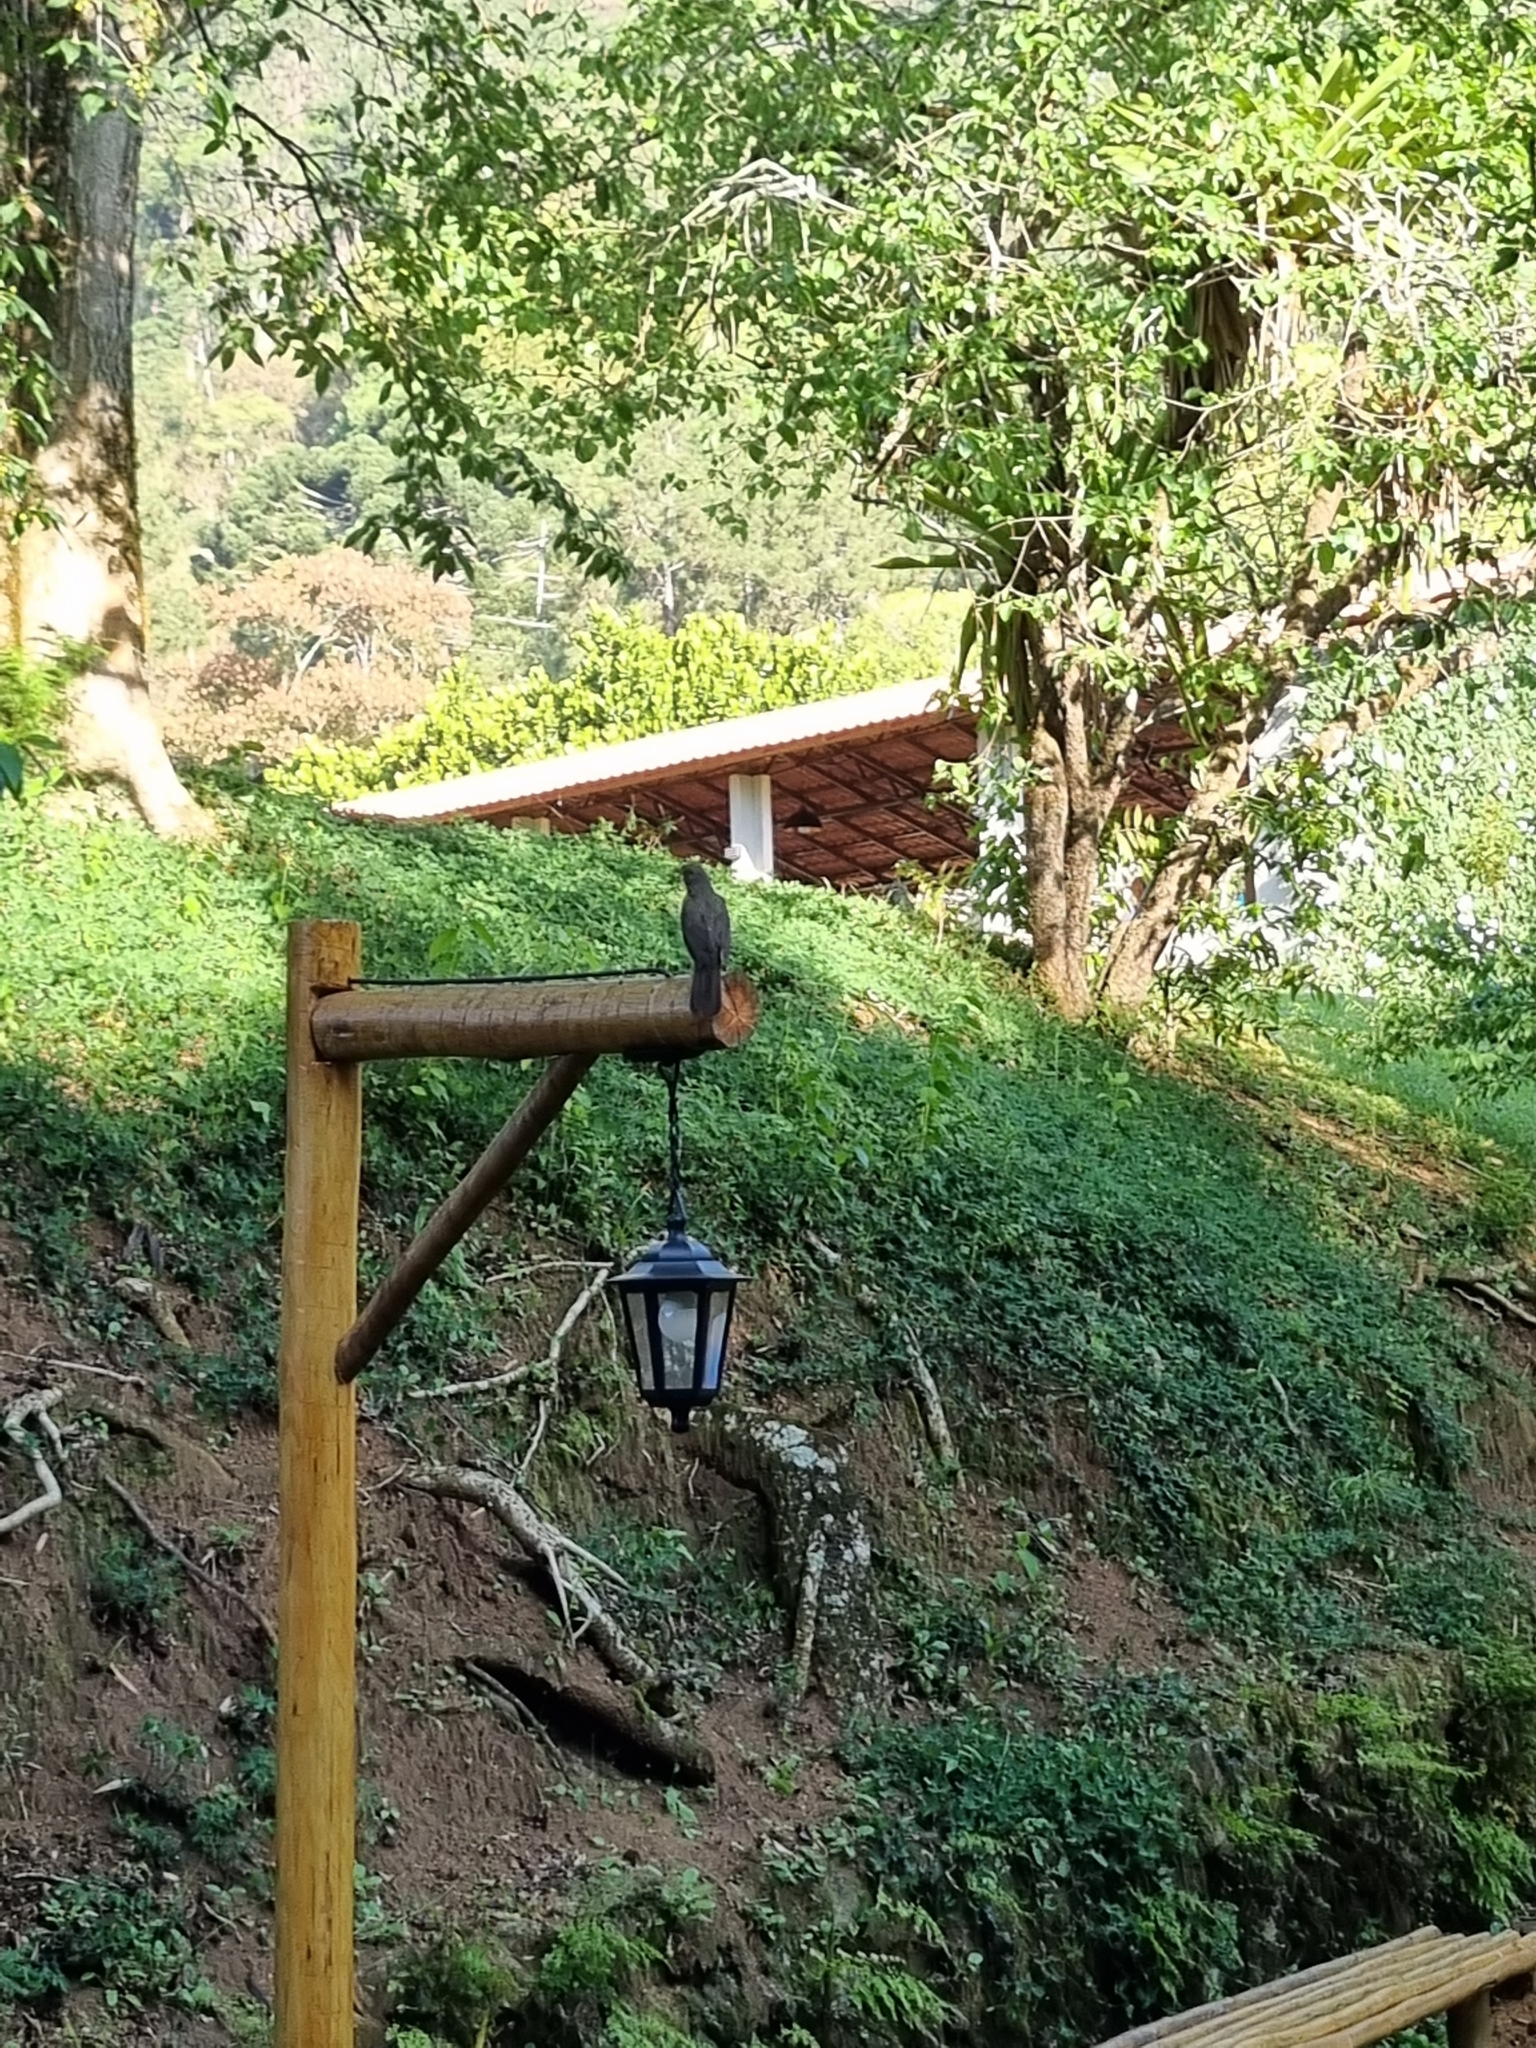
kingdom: Animalia
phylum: Chordata
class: Aves
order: Passeriformes
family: Turdidae
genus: Turdus
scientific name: Turdus rufiventris
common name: Rufous-bellied thrush
